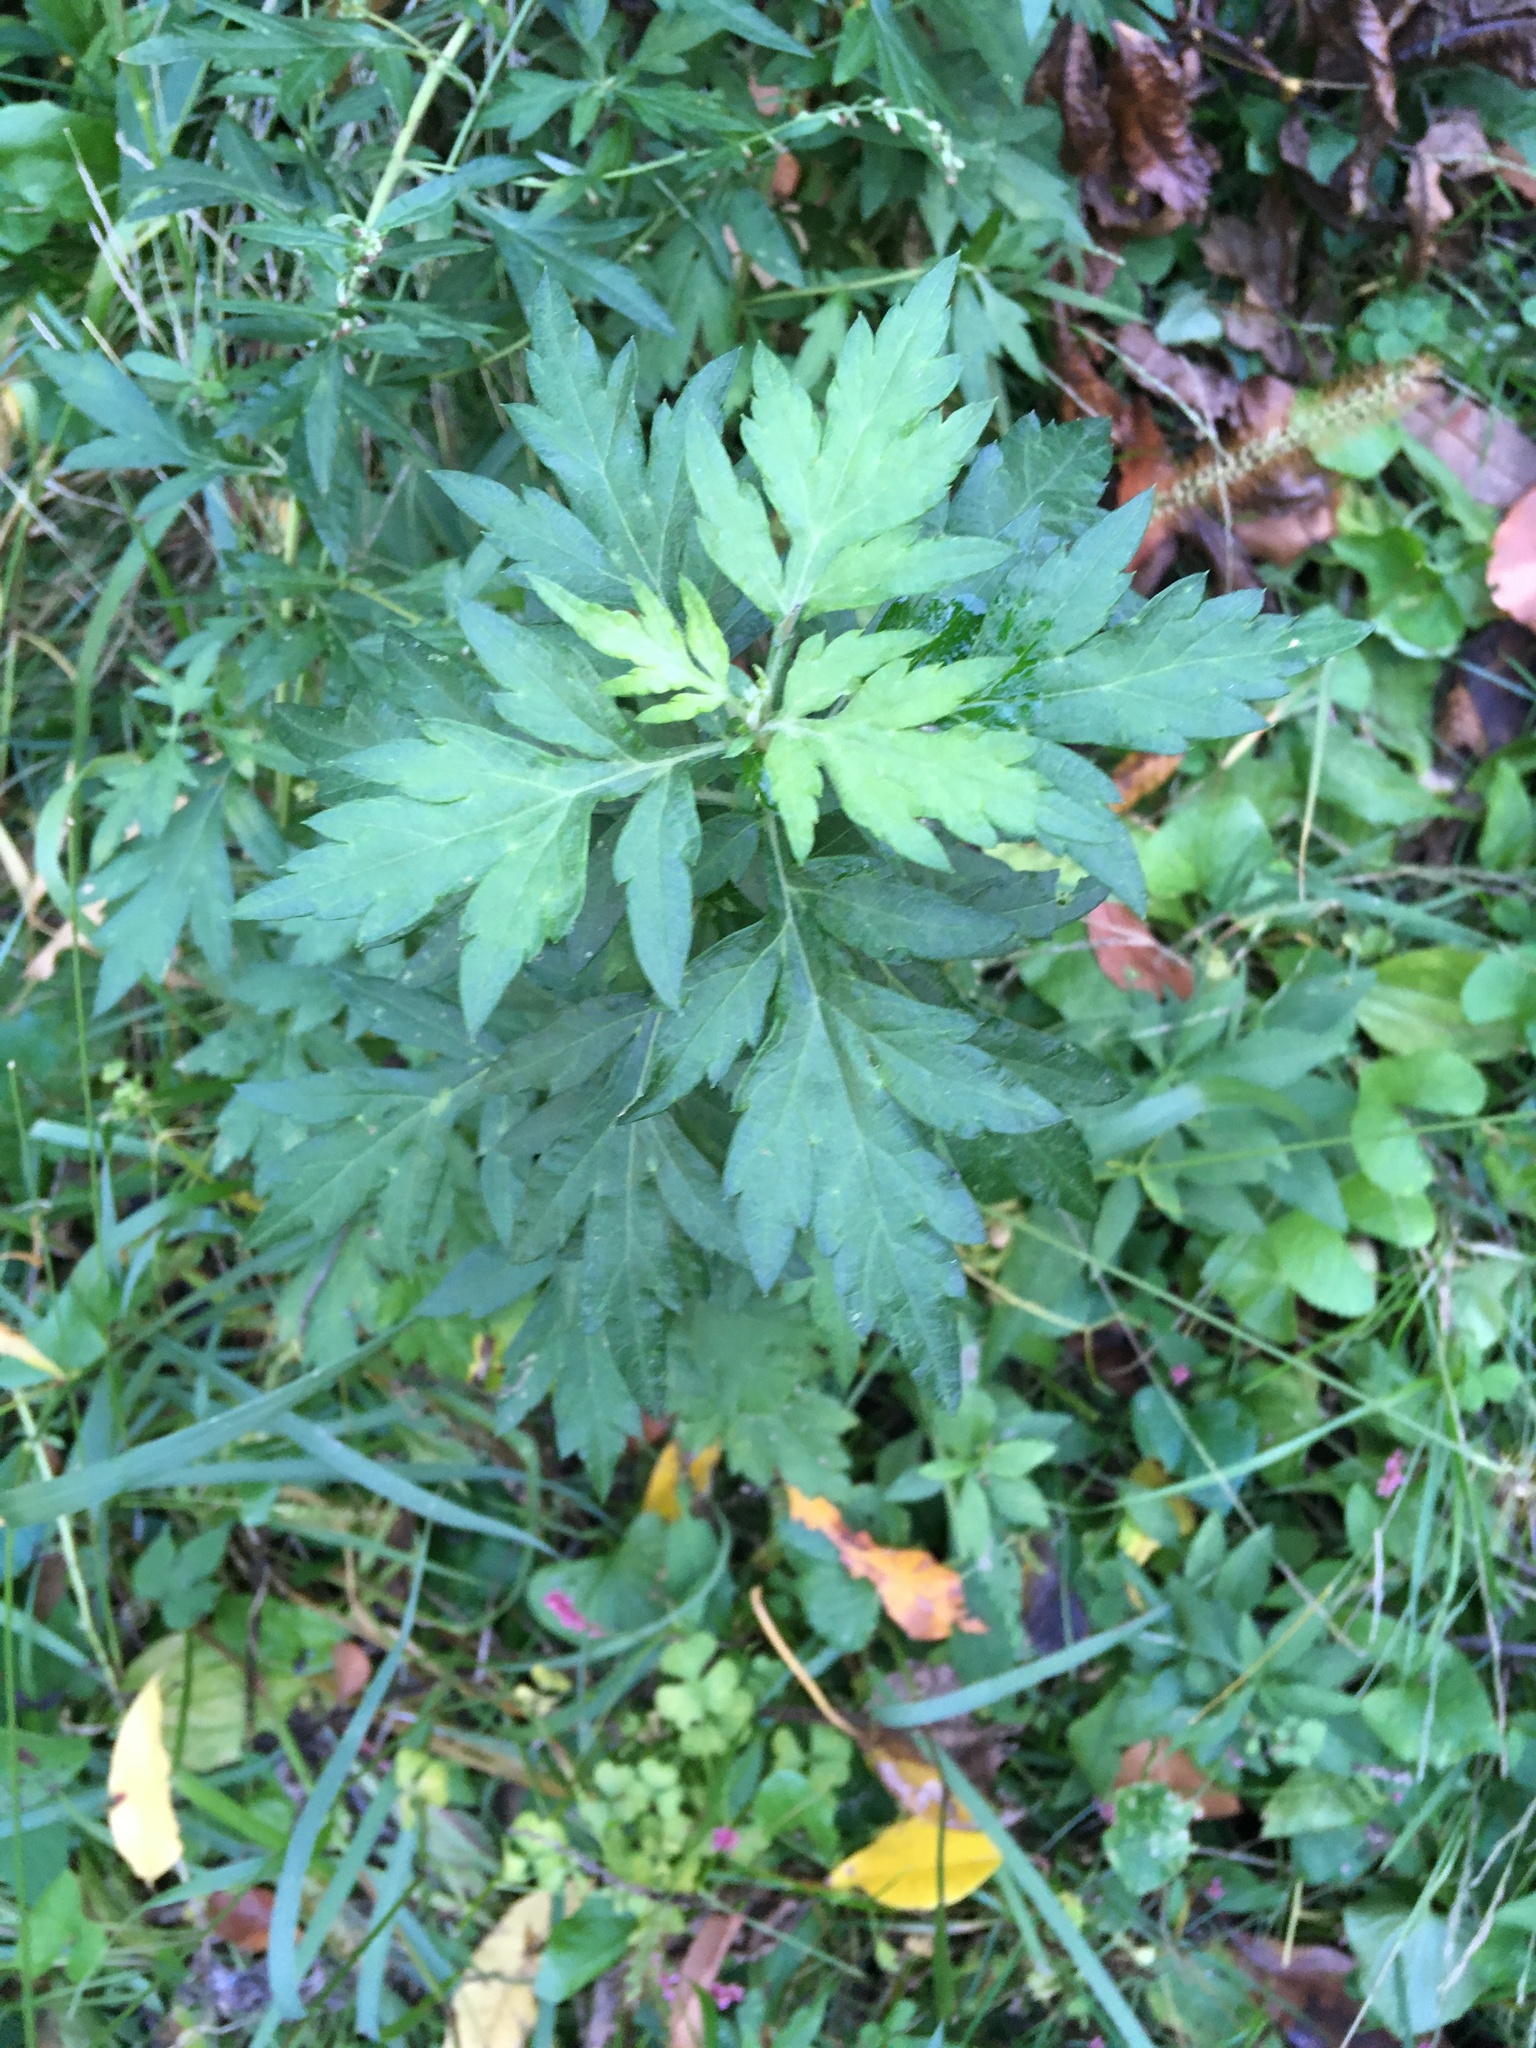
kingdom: Plantae
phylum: Tracheophyta
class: Magnoliopsida
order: Asterales
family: Asteraceae
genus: Artemisia
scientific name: Artemisia vulgaris
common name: Mugwort
